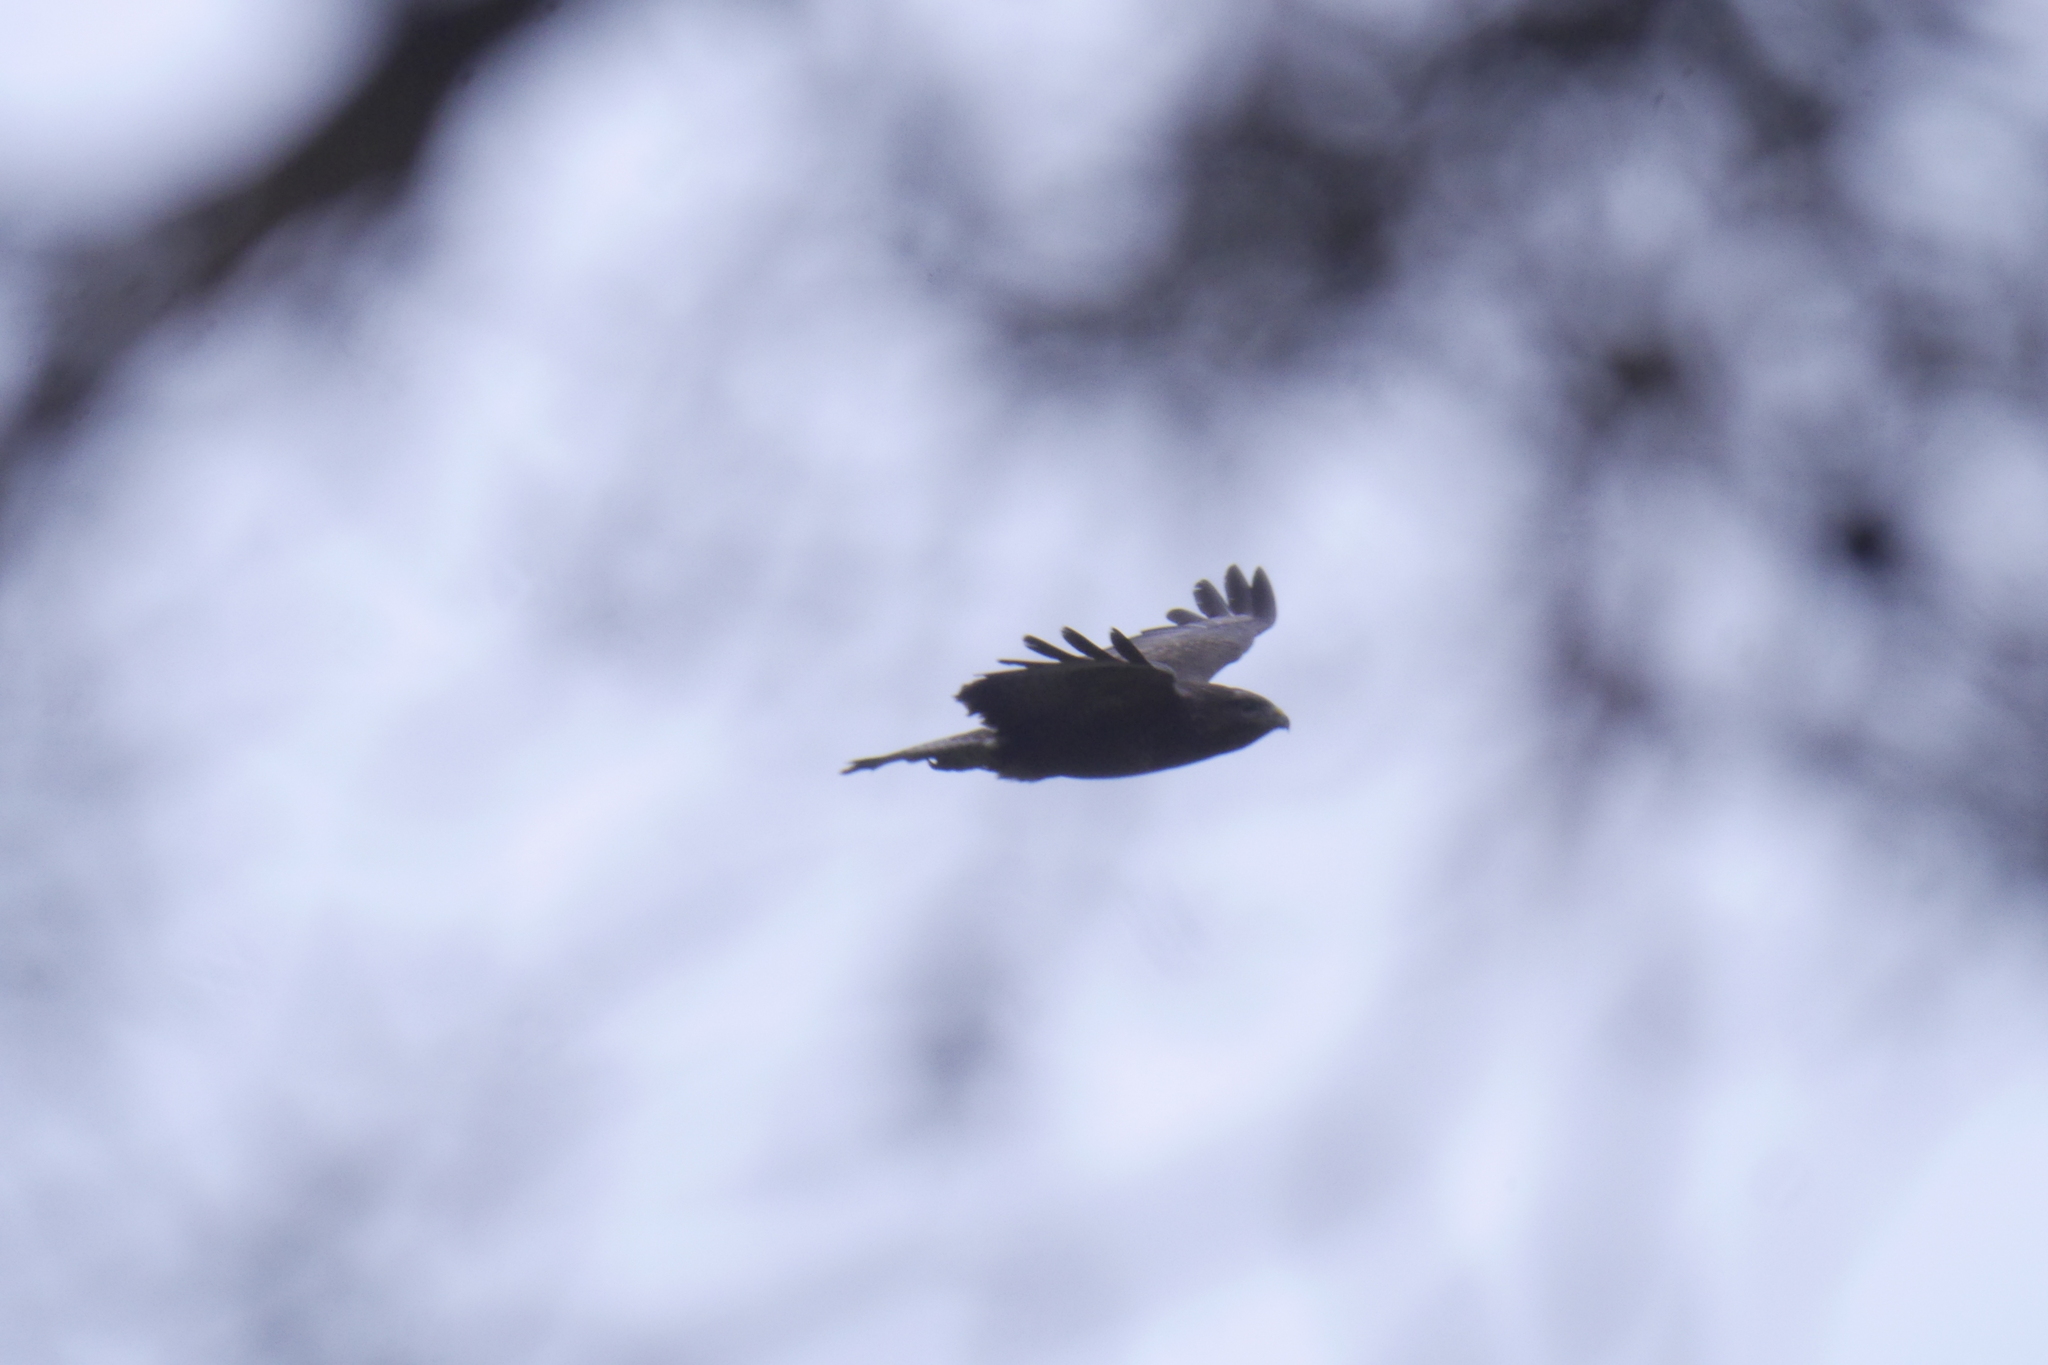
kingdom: Animalia
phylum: Chordata
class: Aves
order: Accipitriformes
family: Accipitridae
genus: Buteo
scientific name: Buteo buteo
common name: Common buzzard
